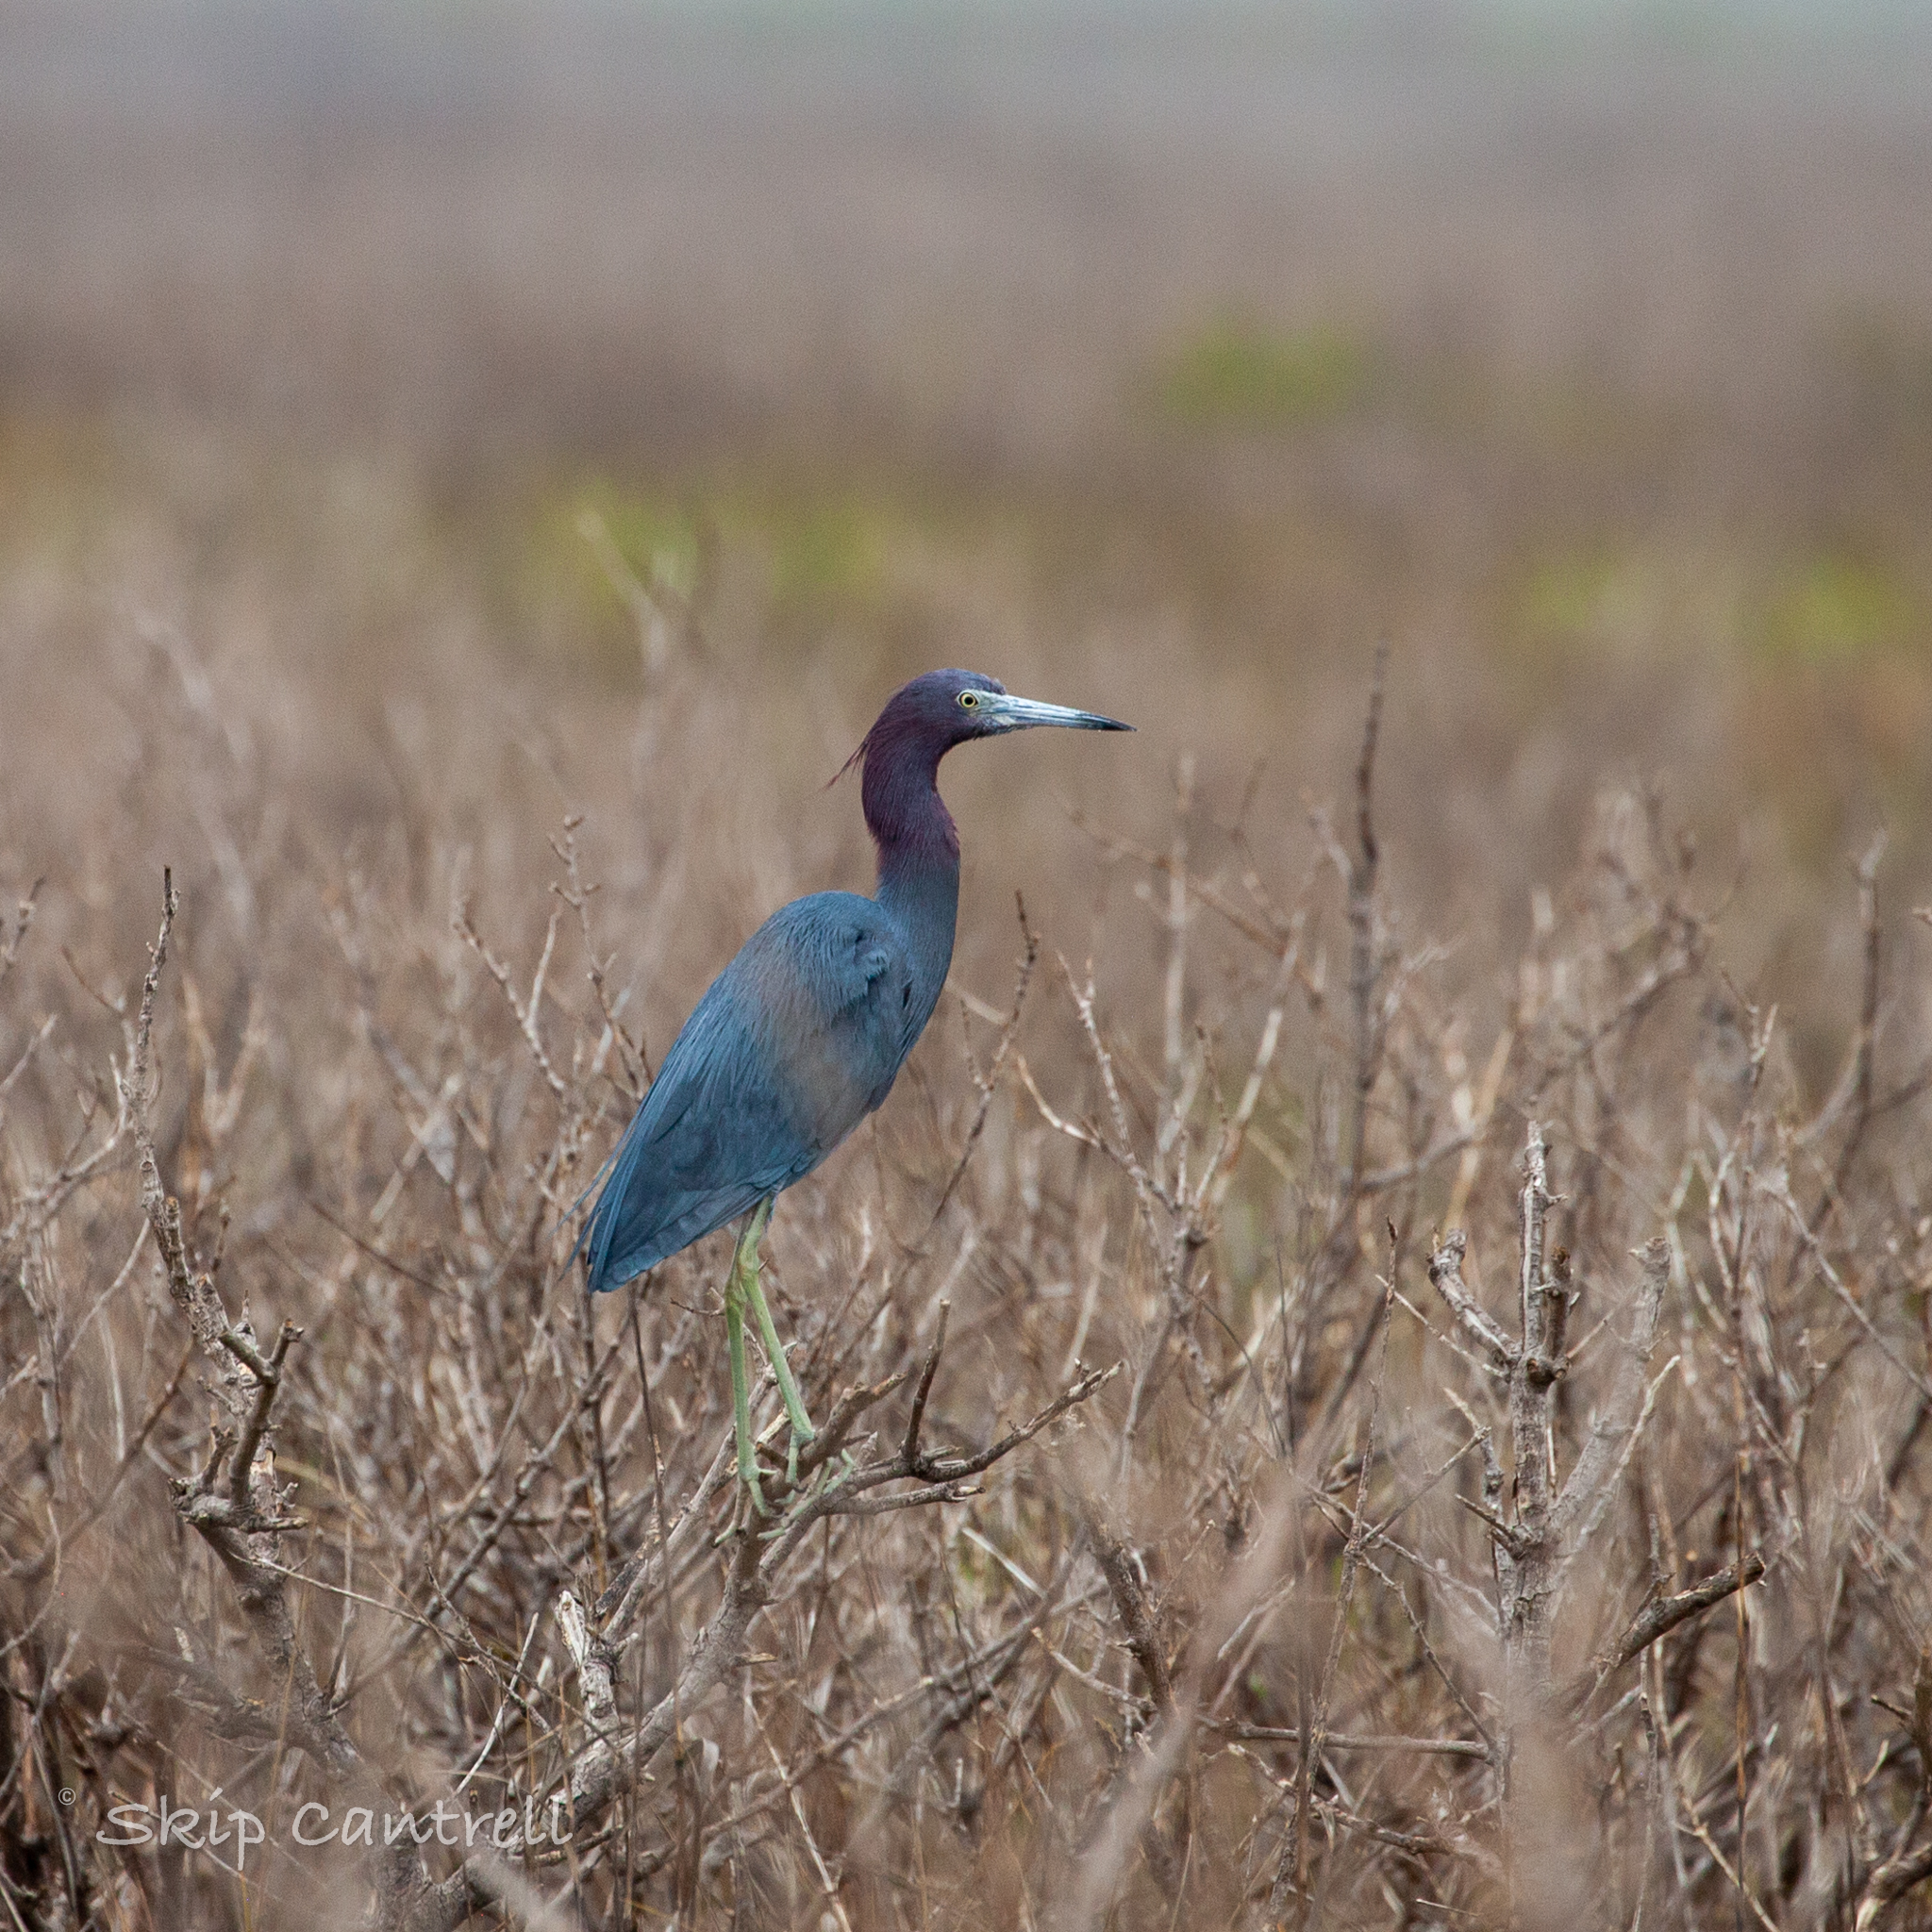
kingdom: Animalia
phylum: Chordata
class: Aves
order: Pelecaniformes
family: Ardeidae
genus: Egretta
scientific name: Egretta caerulea
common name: Little blue heron
